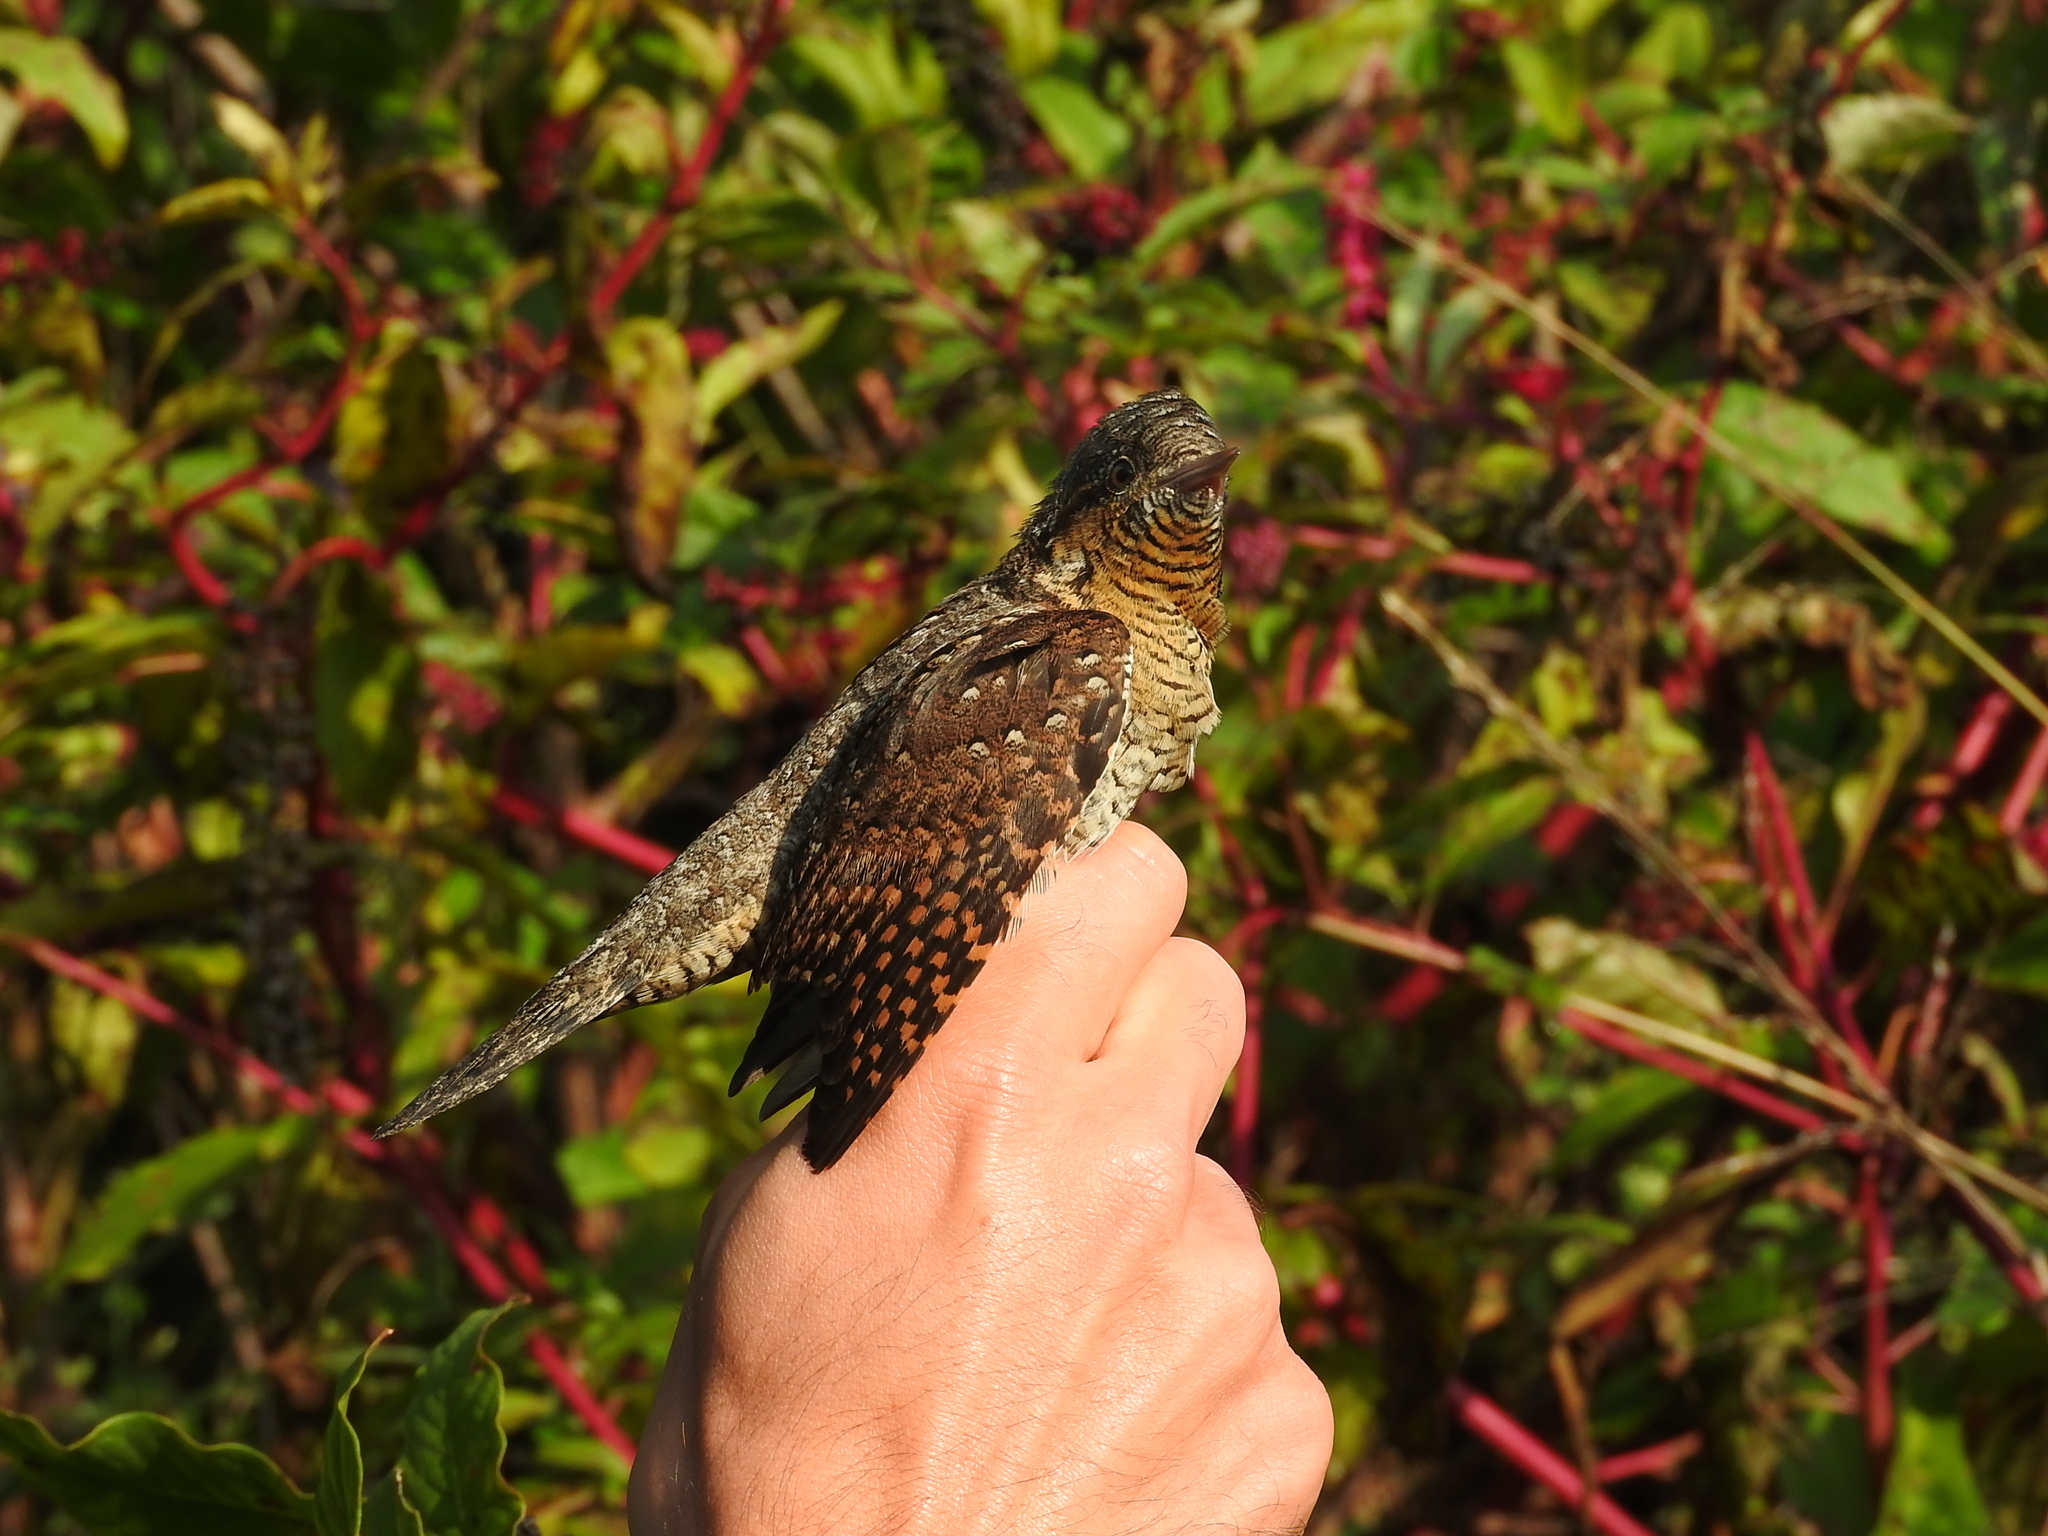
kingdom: Animalia
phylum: Chordata
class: Aves
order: Piciformes
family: Picidae
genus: Jynx
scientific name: Jynx torquilla
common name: Eurasian wryneck
